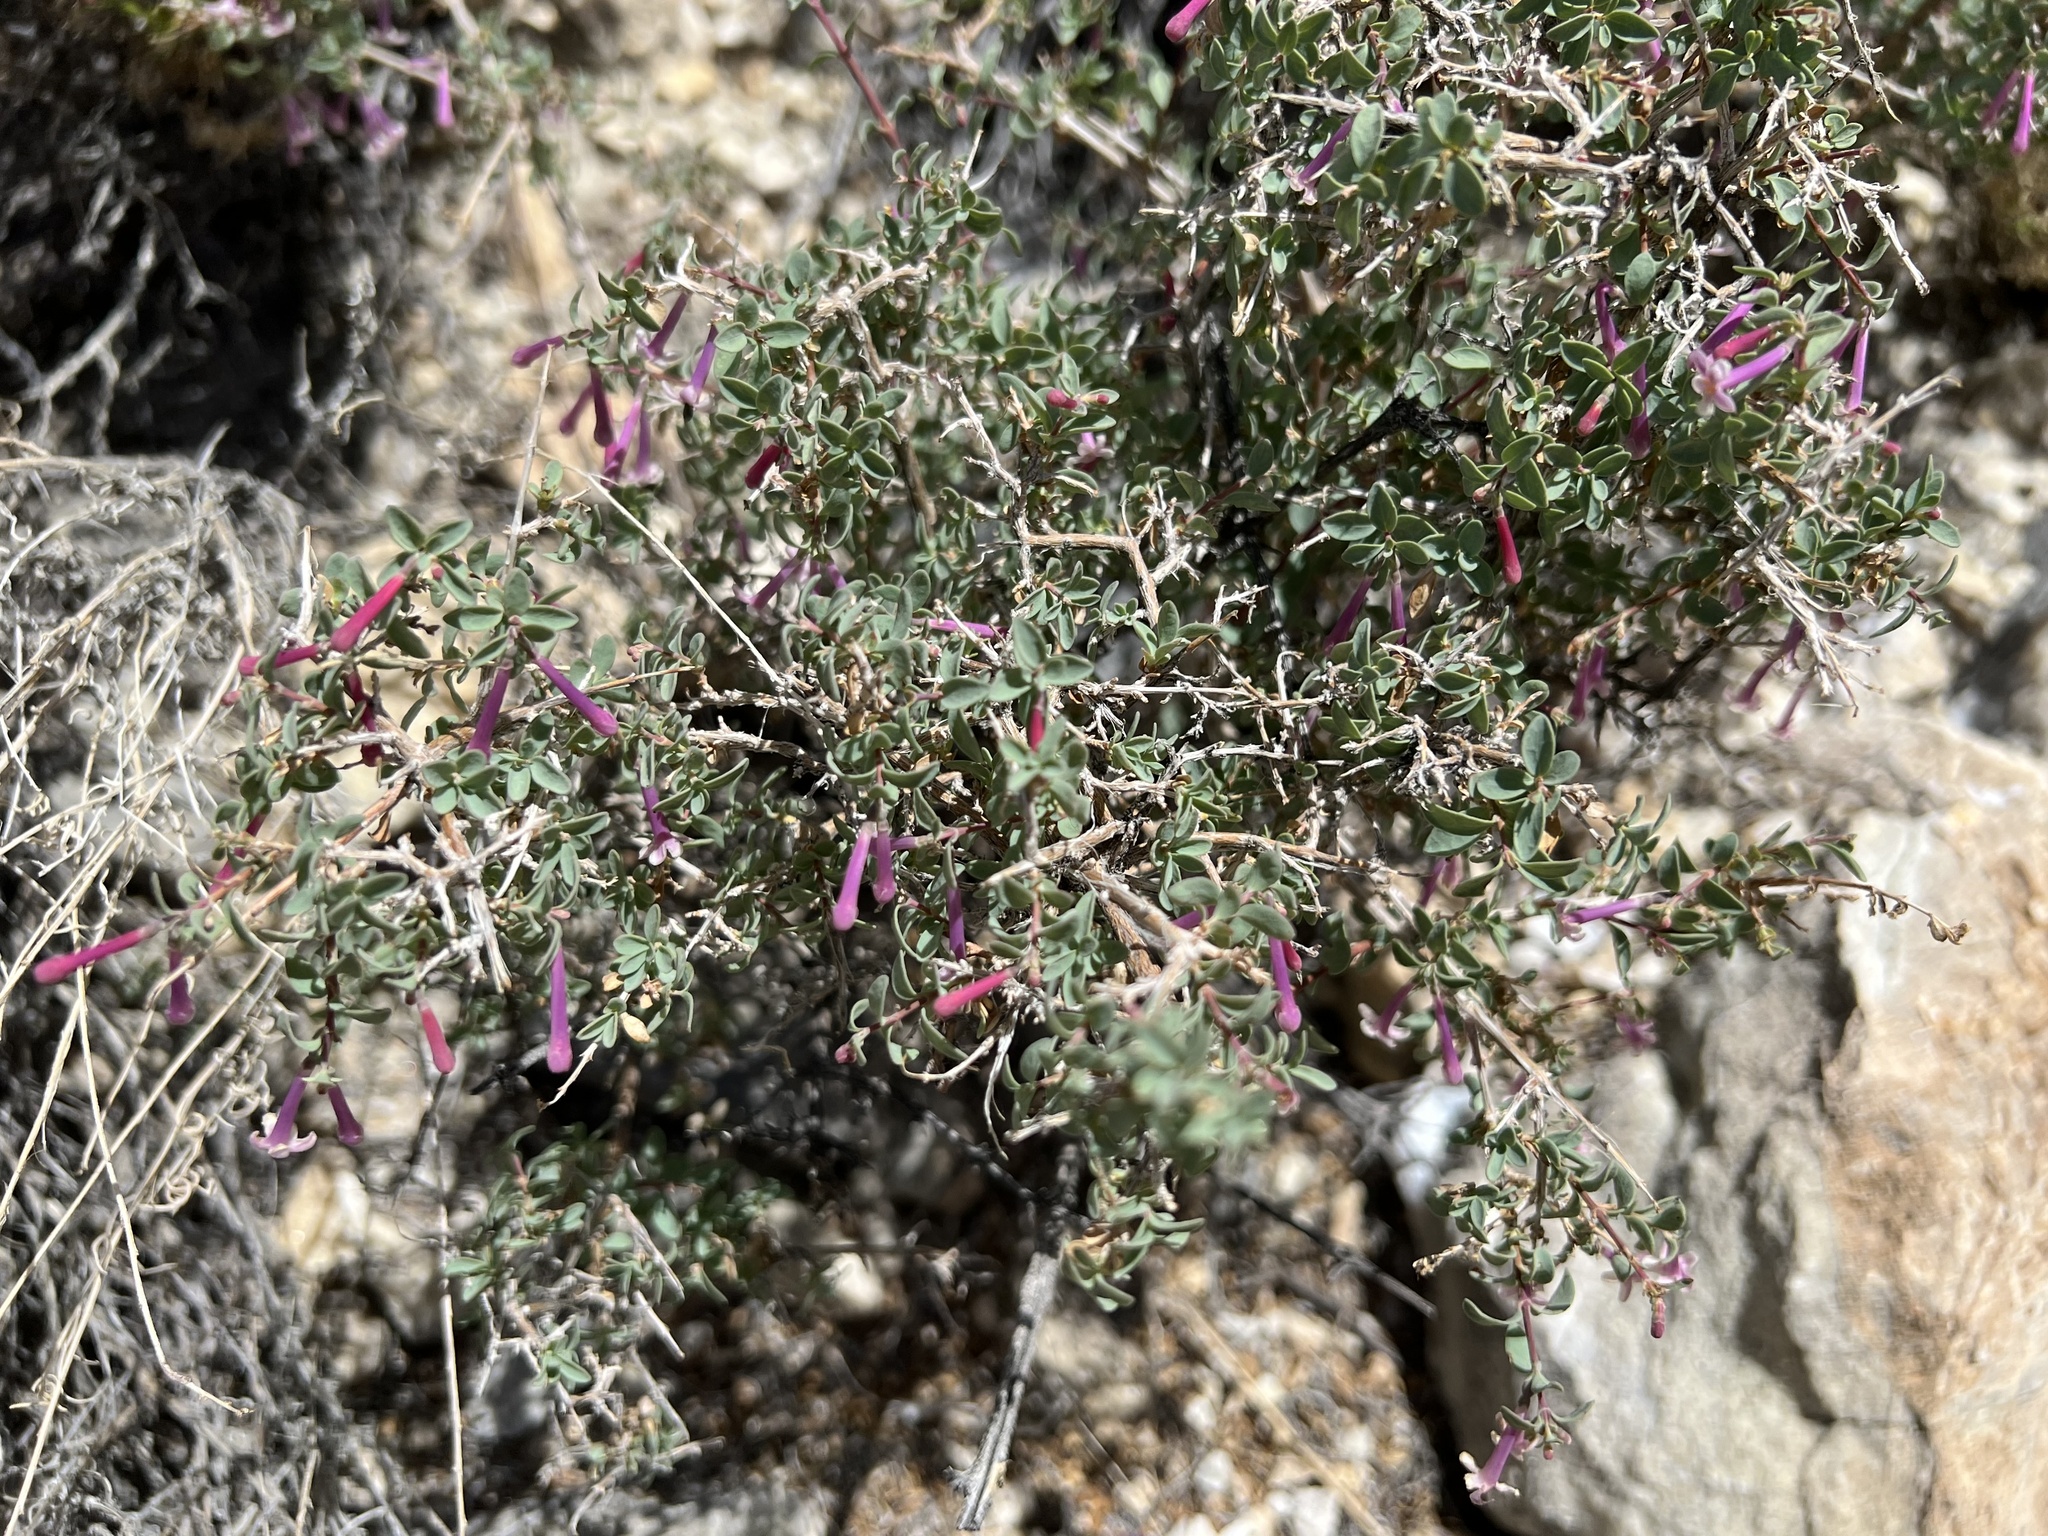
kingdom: Plantae
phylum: Tracheophyta
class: Magnoliopsida
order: Dipsacales
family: Caprifoliaceae
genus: Symphoricarpos
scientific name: Symphoricarpos longiflorus
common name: Fragrant snowberry
